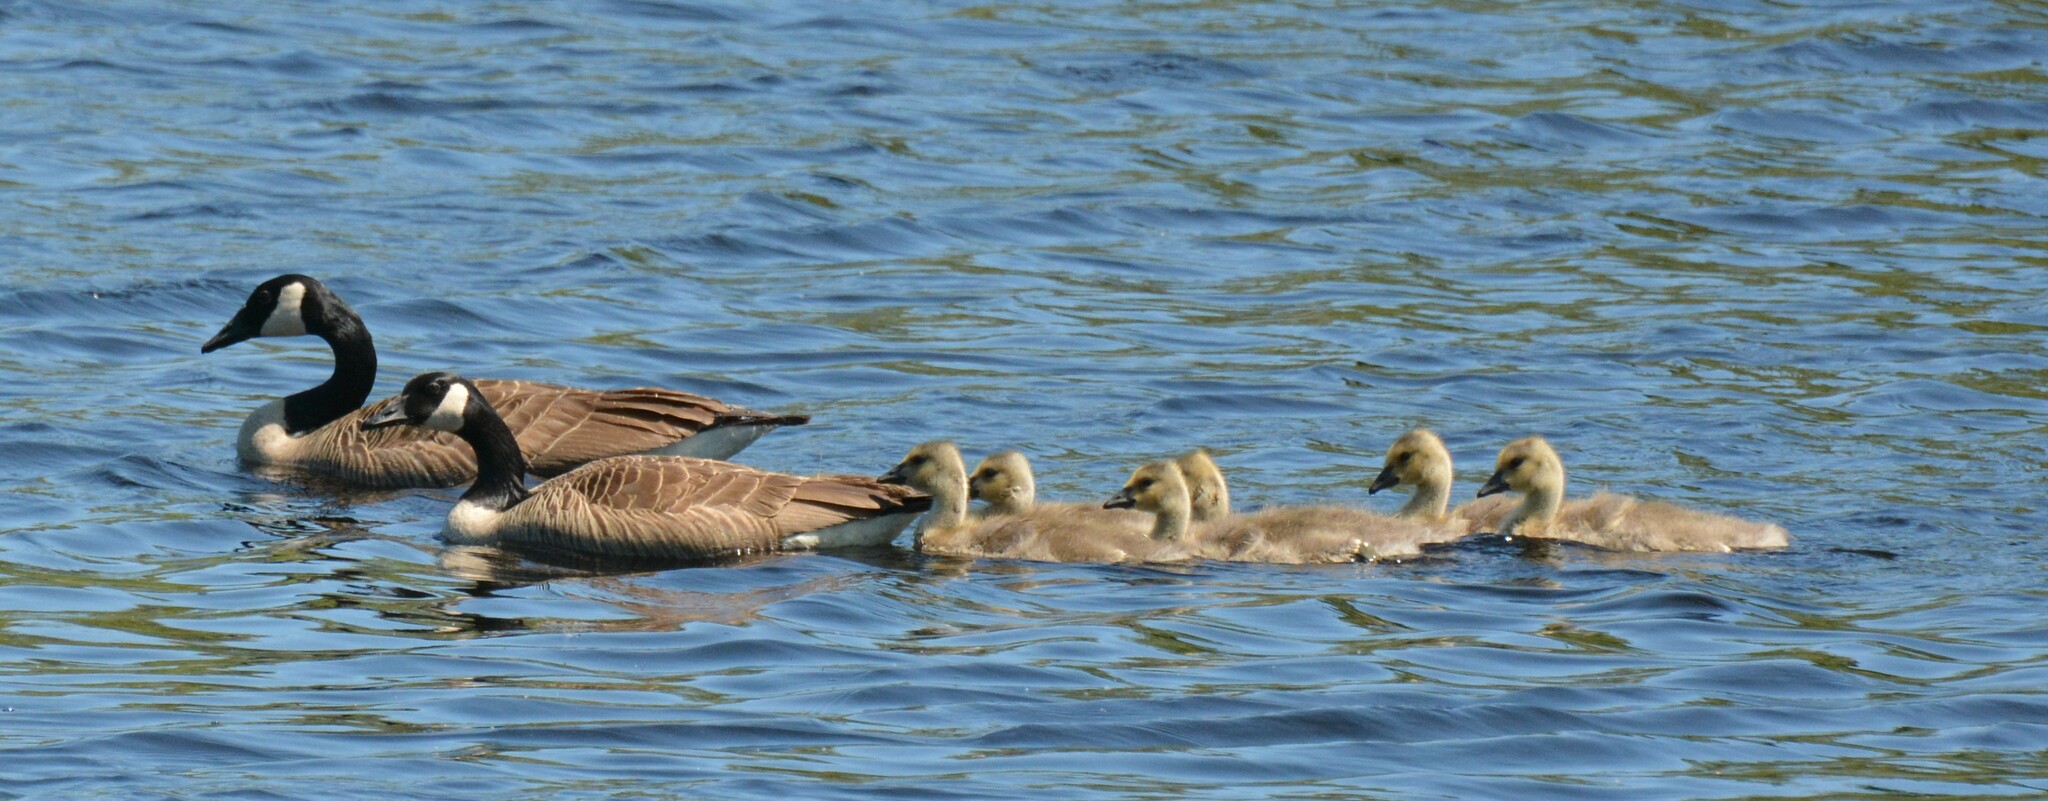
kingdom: Animalia
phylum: Chordata
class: Aves
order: Anseriformes
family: Anatidae
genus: Branta
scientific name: Branta canadensis
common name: Canada goose
